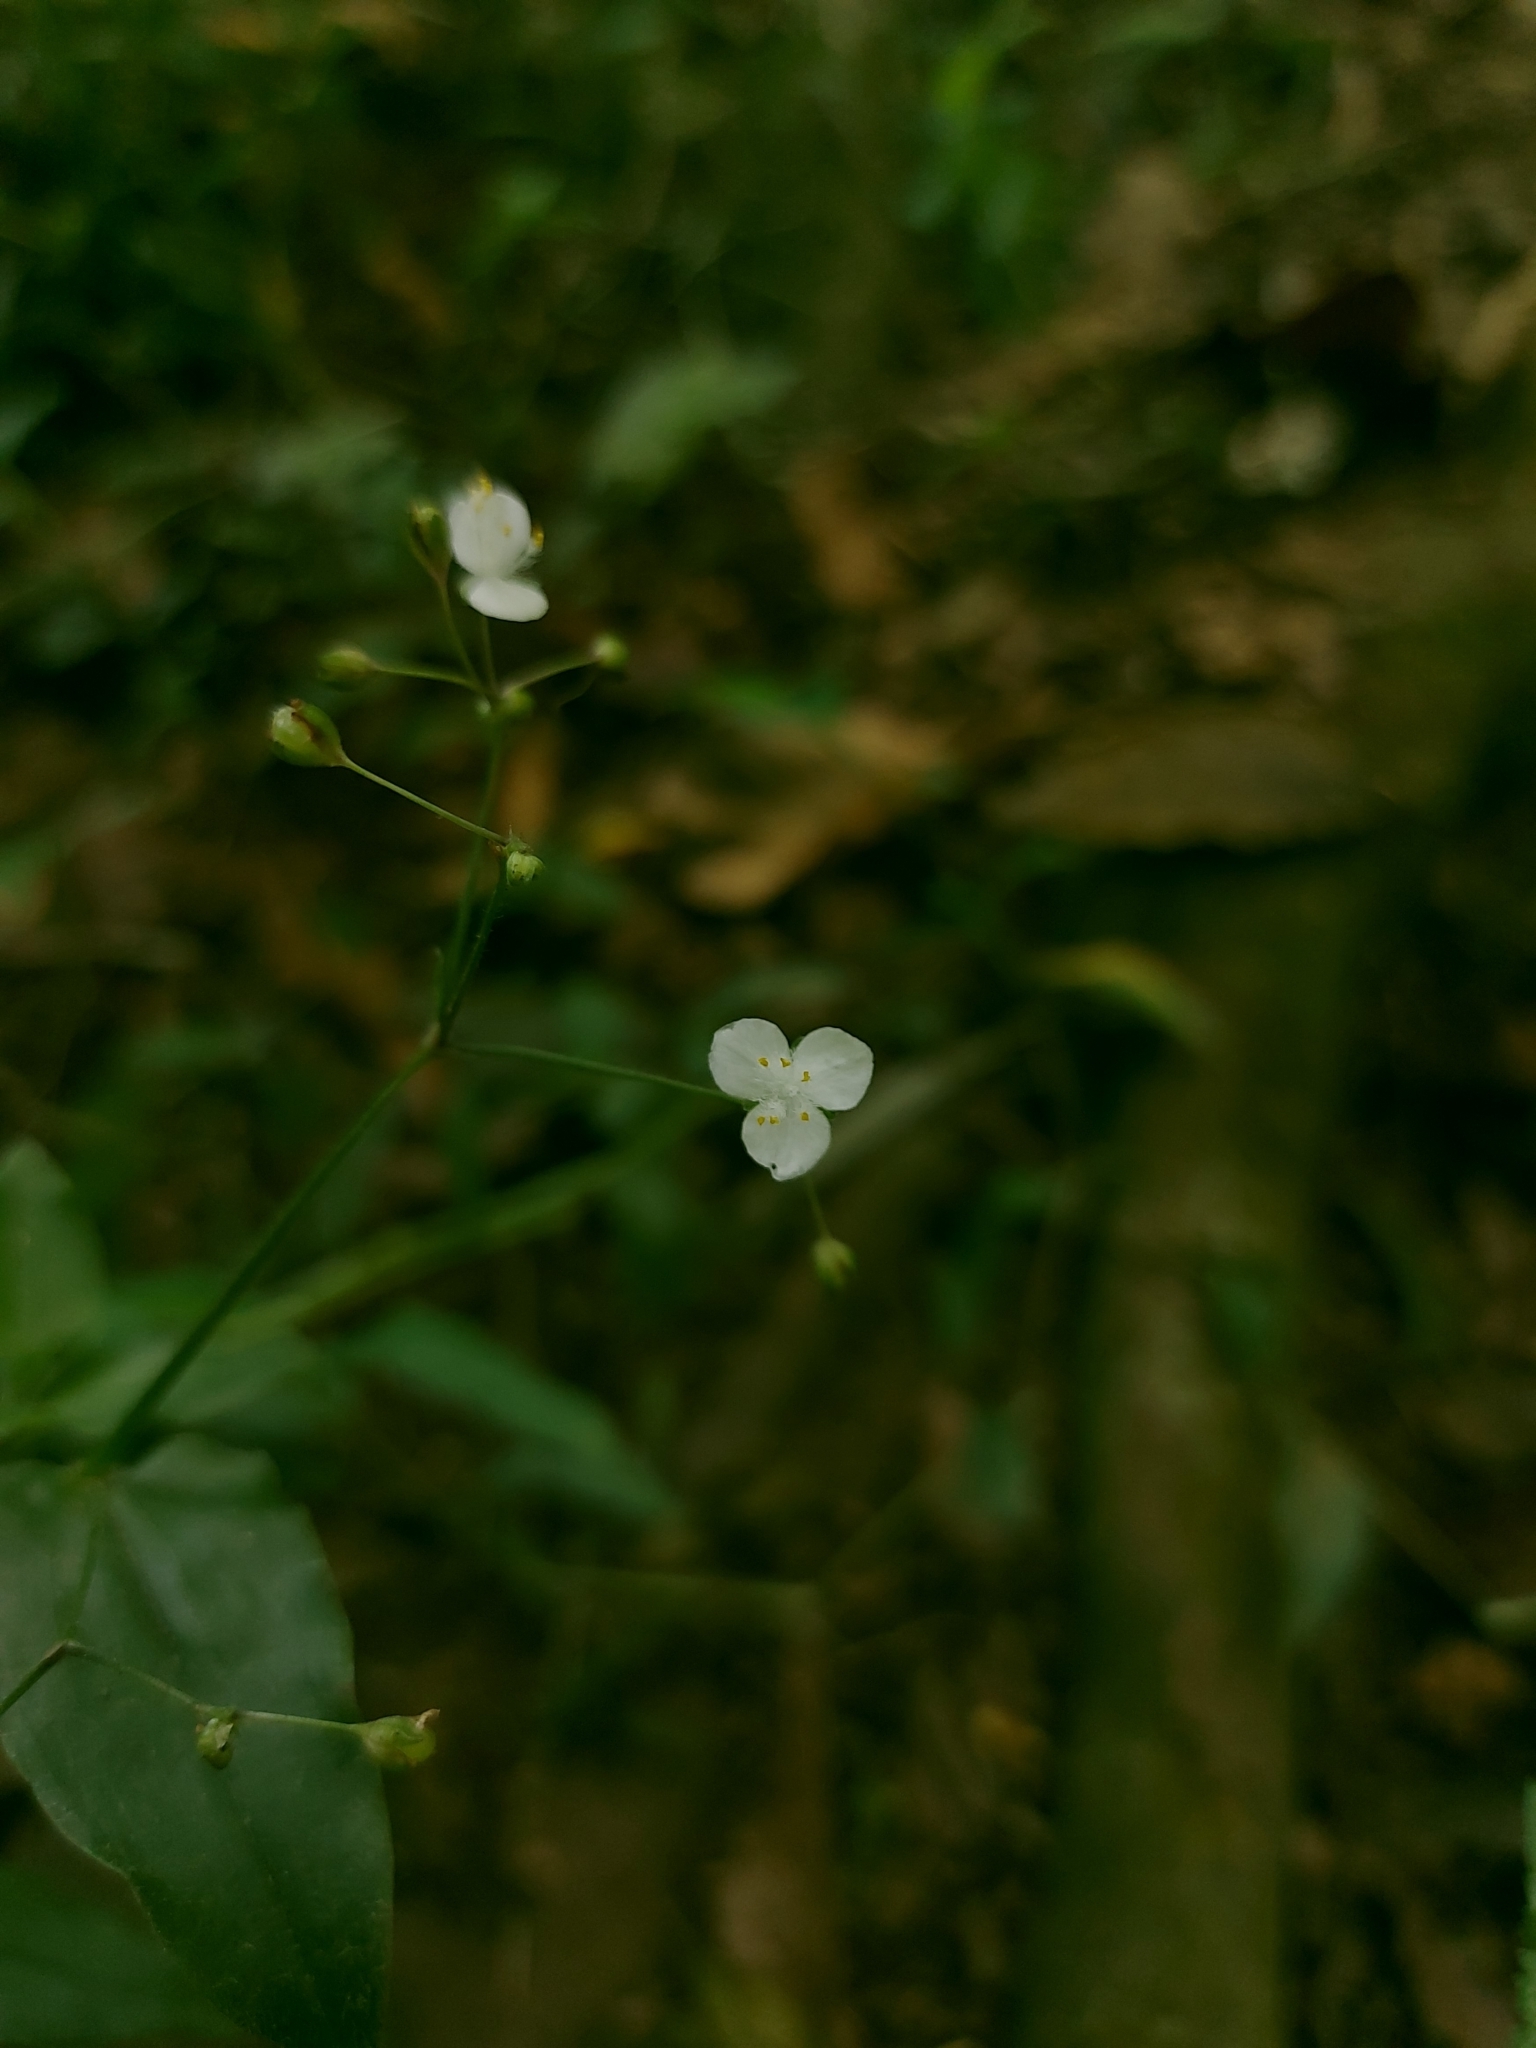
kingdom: Plantae
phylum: Tracheophyta
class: Liliopsida
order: Commelinales
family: Commelinaceae
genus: Gibasis
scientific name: Gibasis pellucida
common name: Dotted bridalveil
